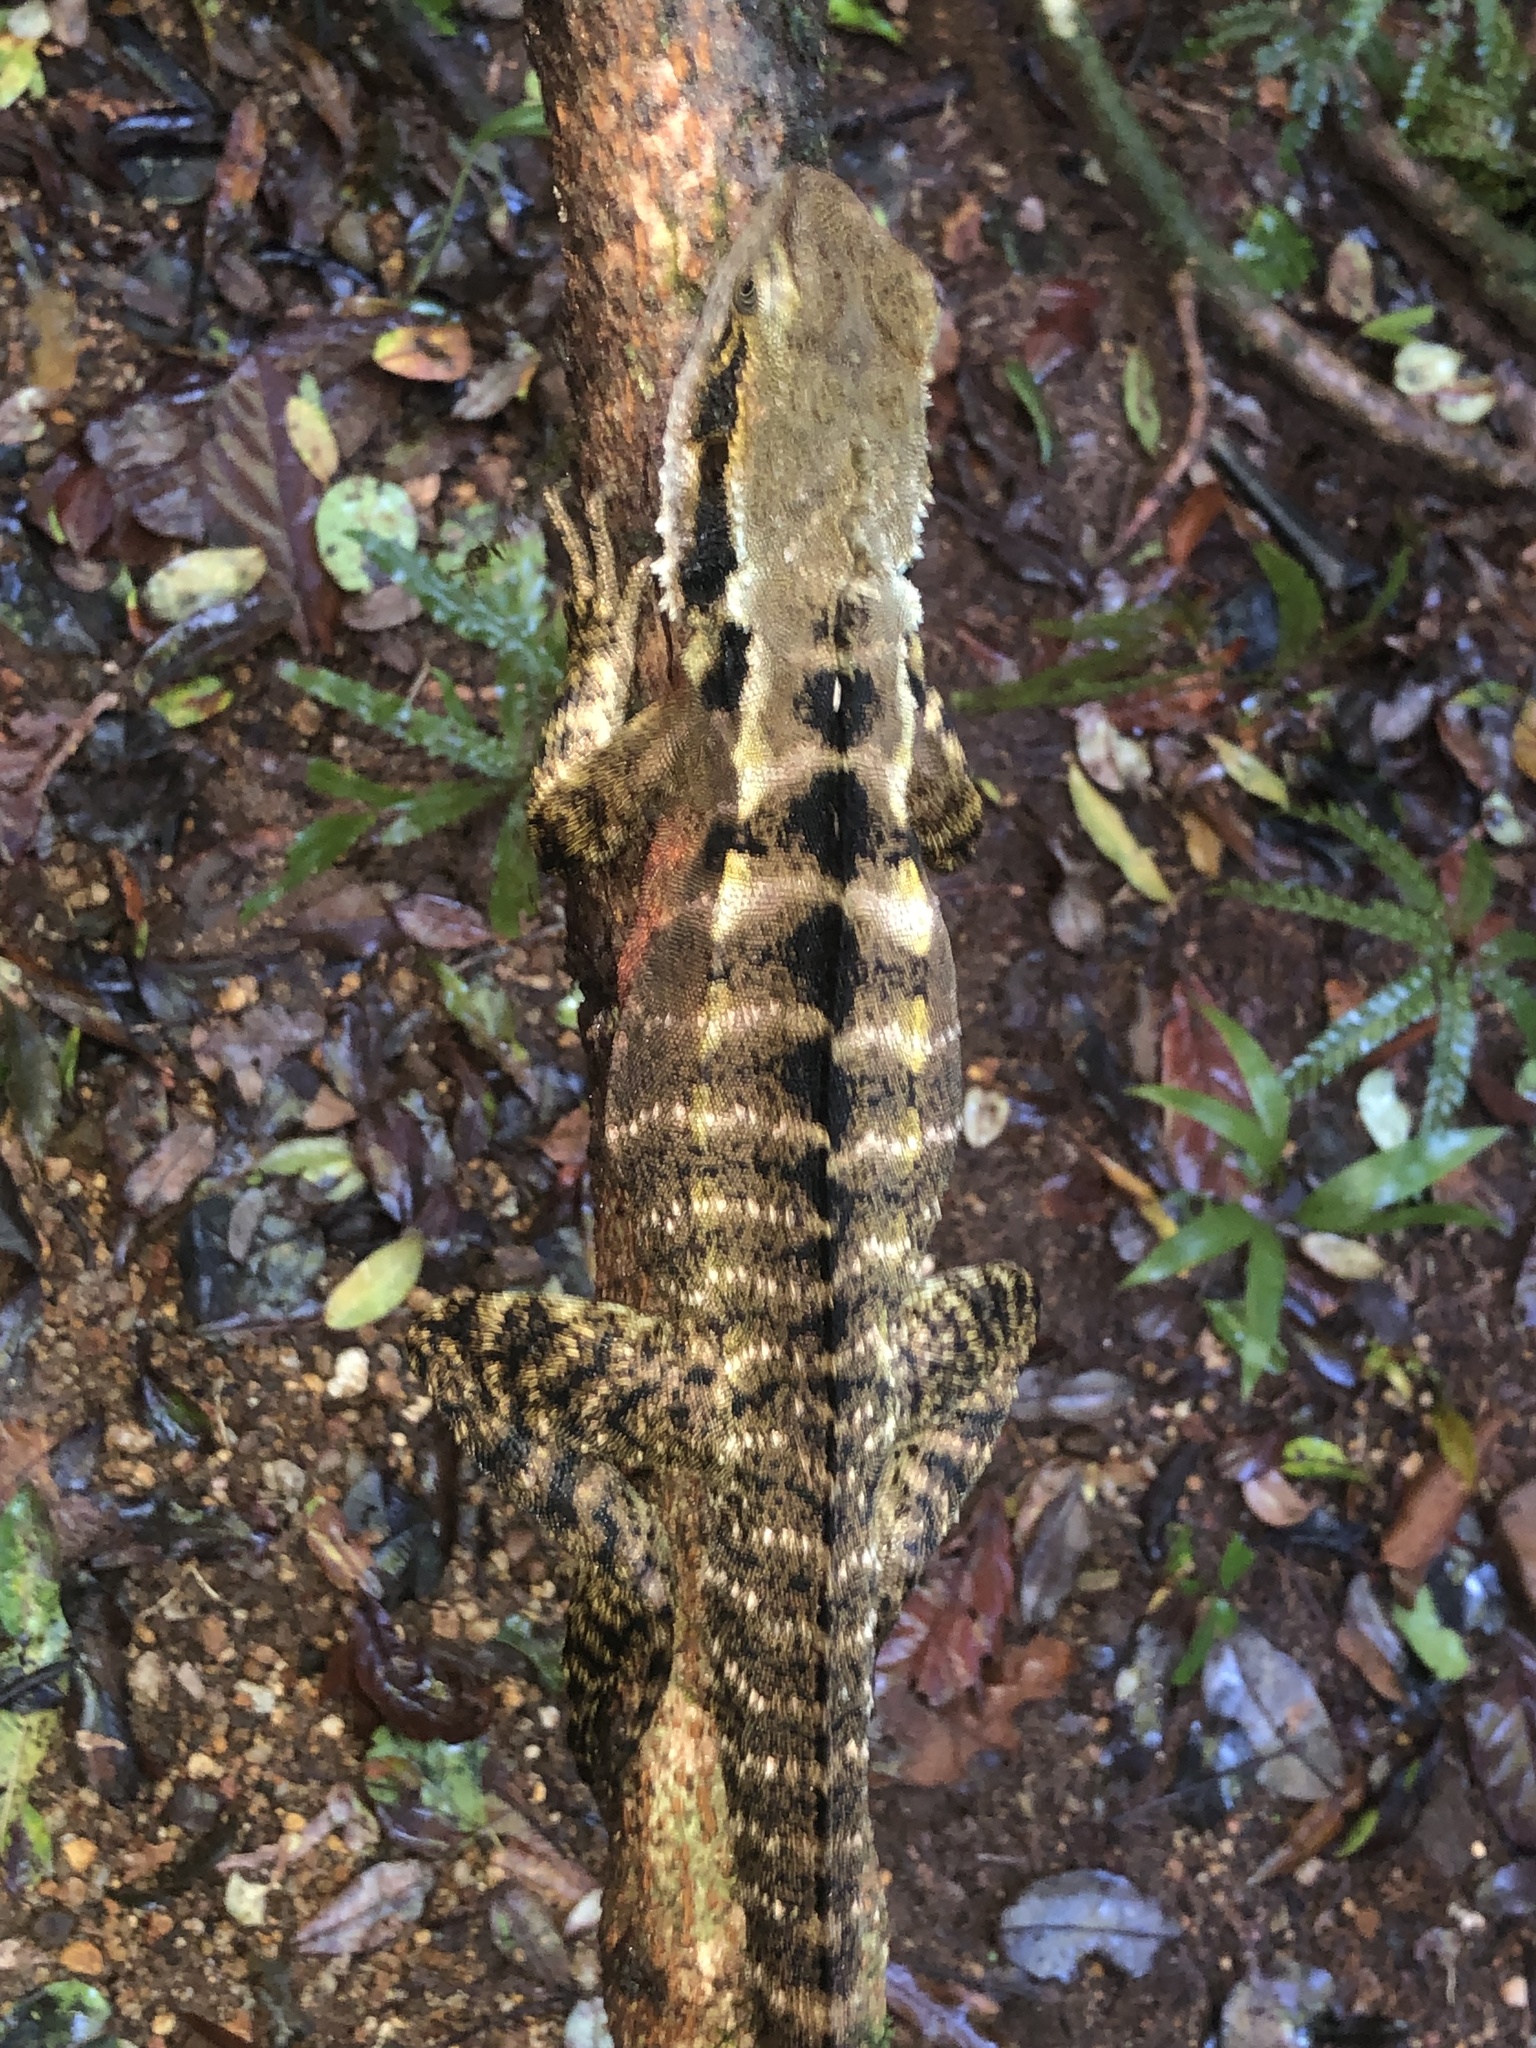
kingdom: Animalia
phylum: Chordata
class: Squamata
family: Agamidae
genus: Intellagama
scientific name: Intellagama lesueurii
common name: Eastern water dragon
